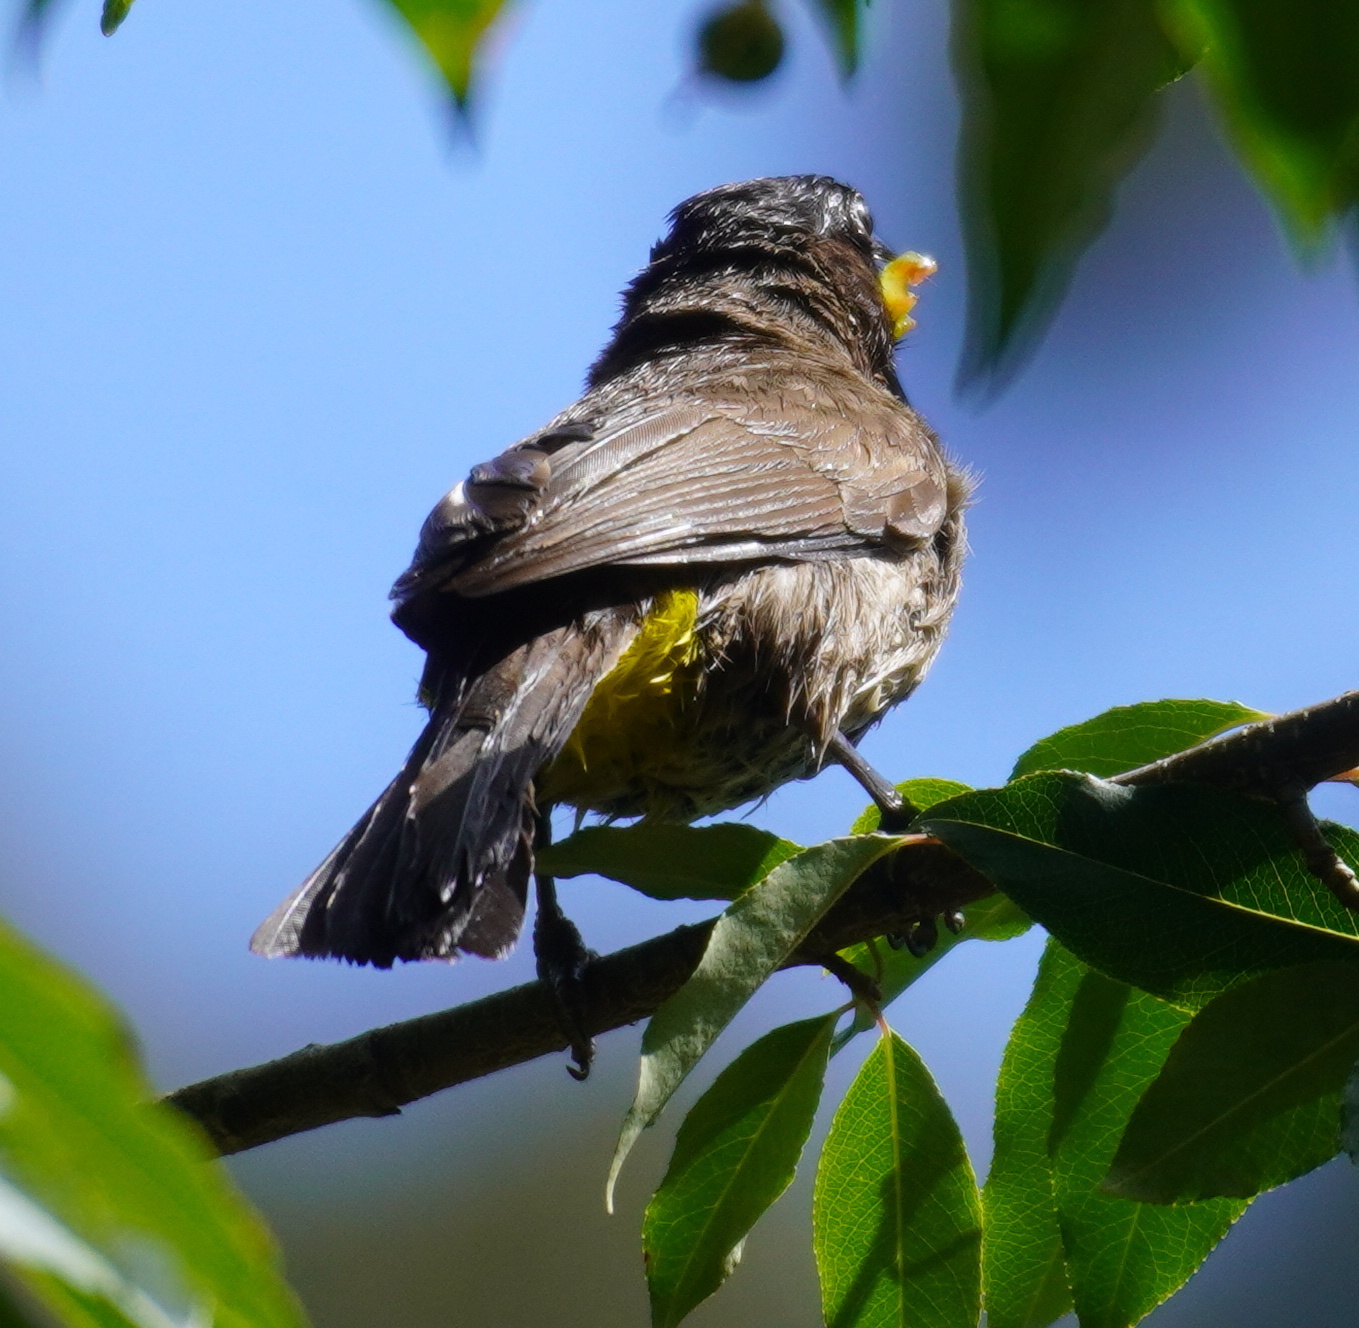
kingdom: Animalia
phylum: Chordata
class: Aves
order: Passeriformes
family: Pycnonotidae
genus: Pycnonotus
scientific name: Pycnonotus barbatus
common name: Common bulbul
